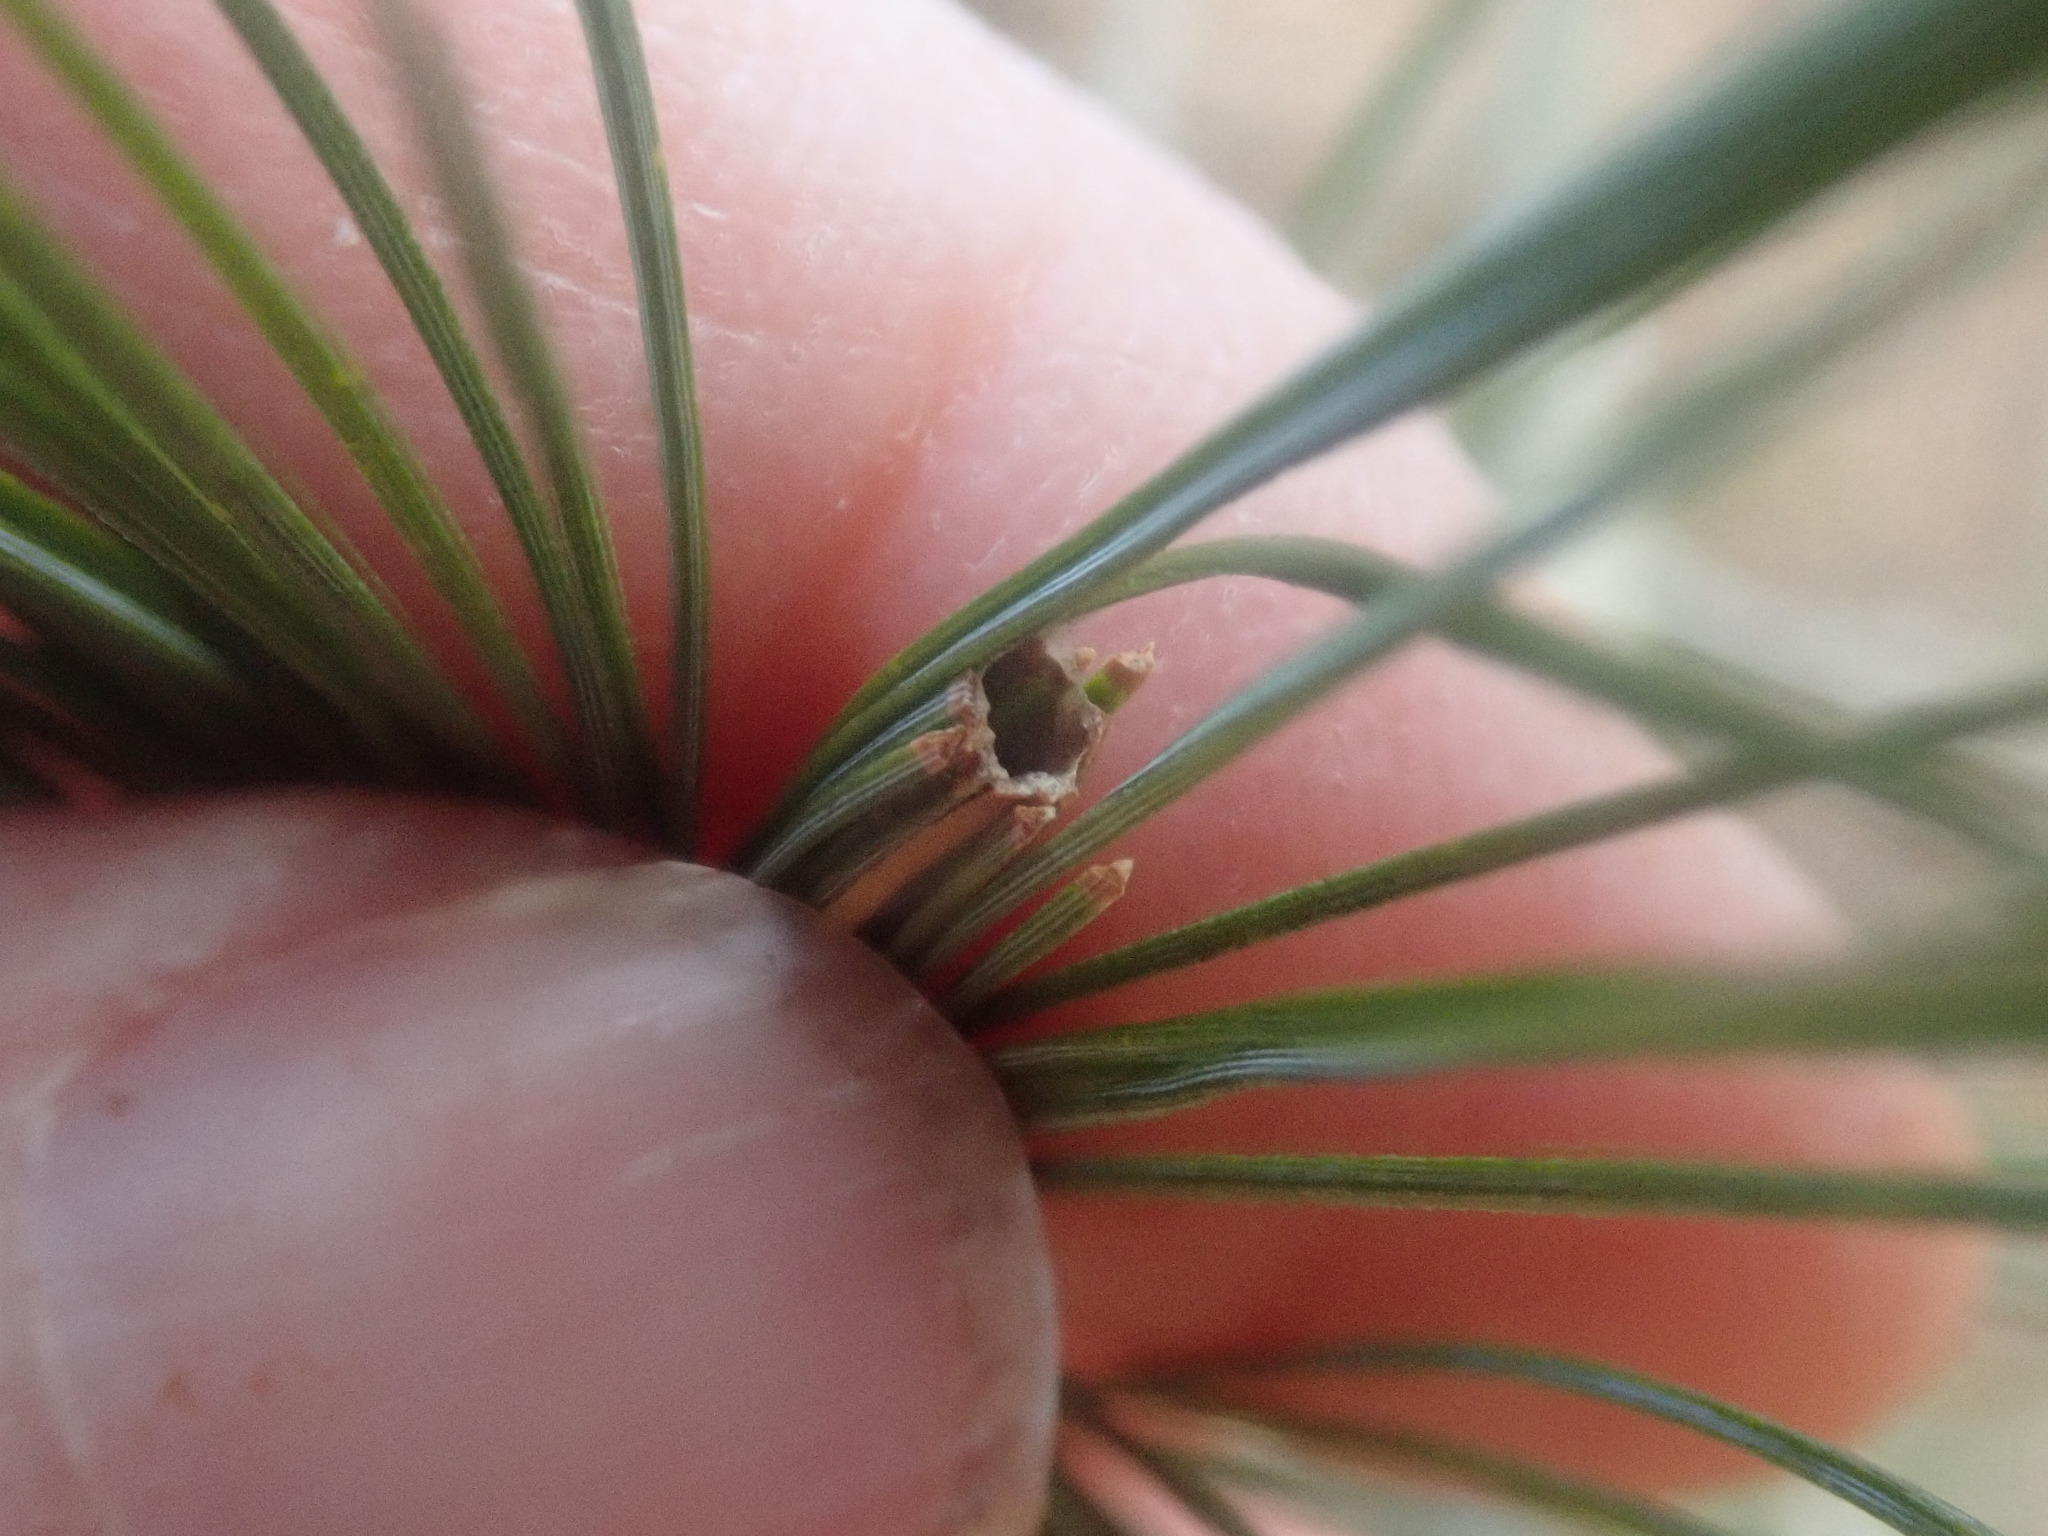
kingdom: Animalia
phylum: Arthropoda
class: Insecta
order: Lepidoptera
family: Tortricidae
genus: Argyrotaenia
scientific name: Argyrotaenia pinatubana
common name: Pine tube moth
